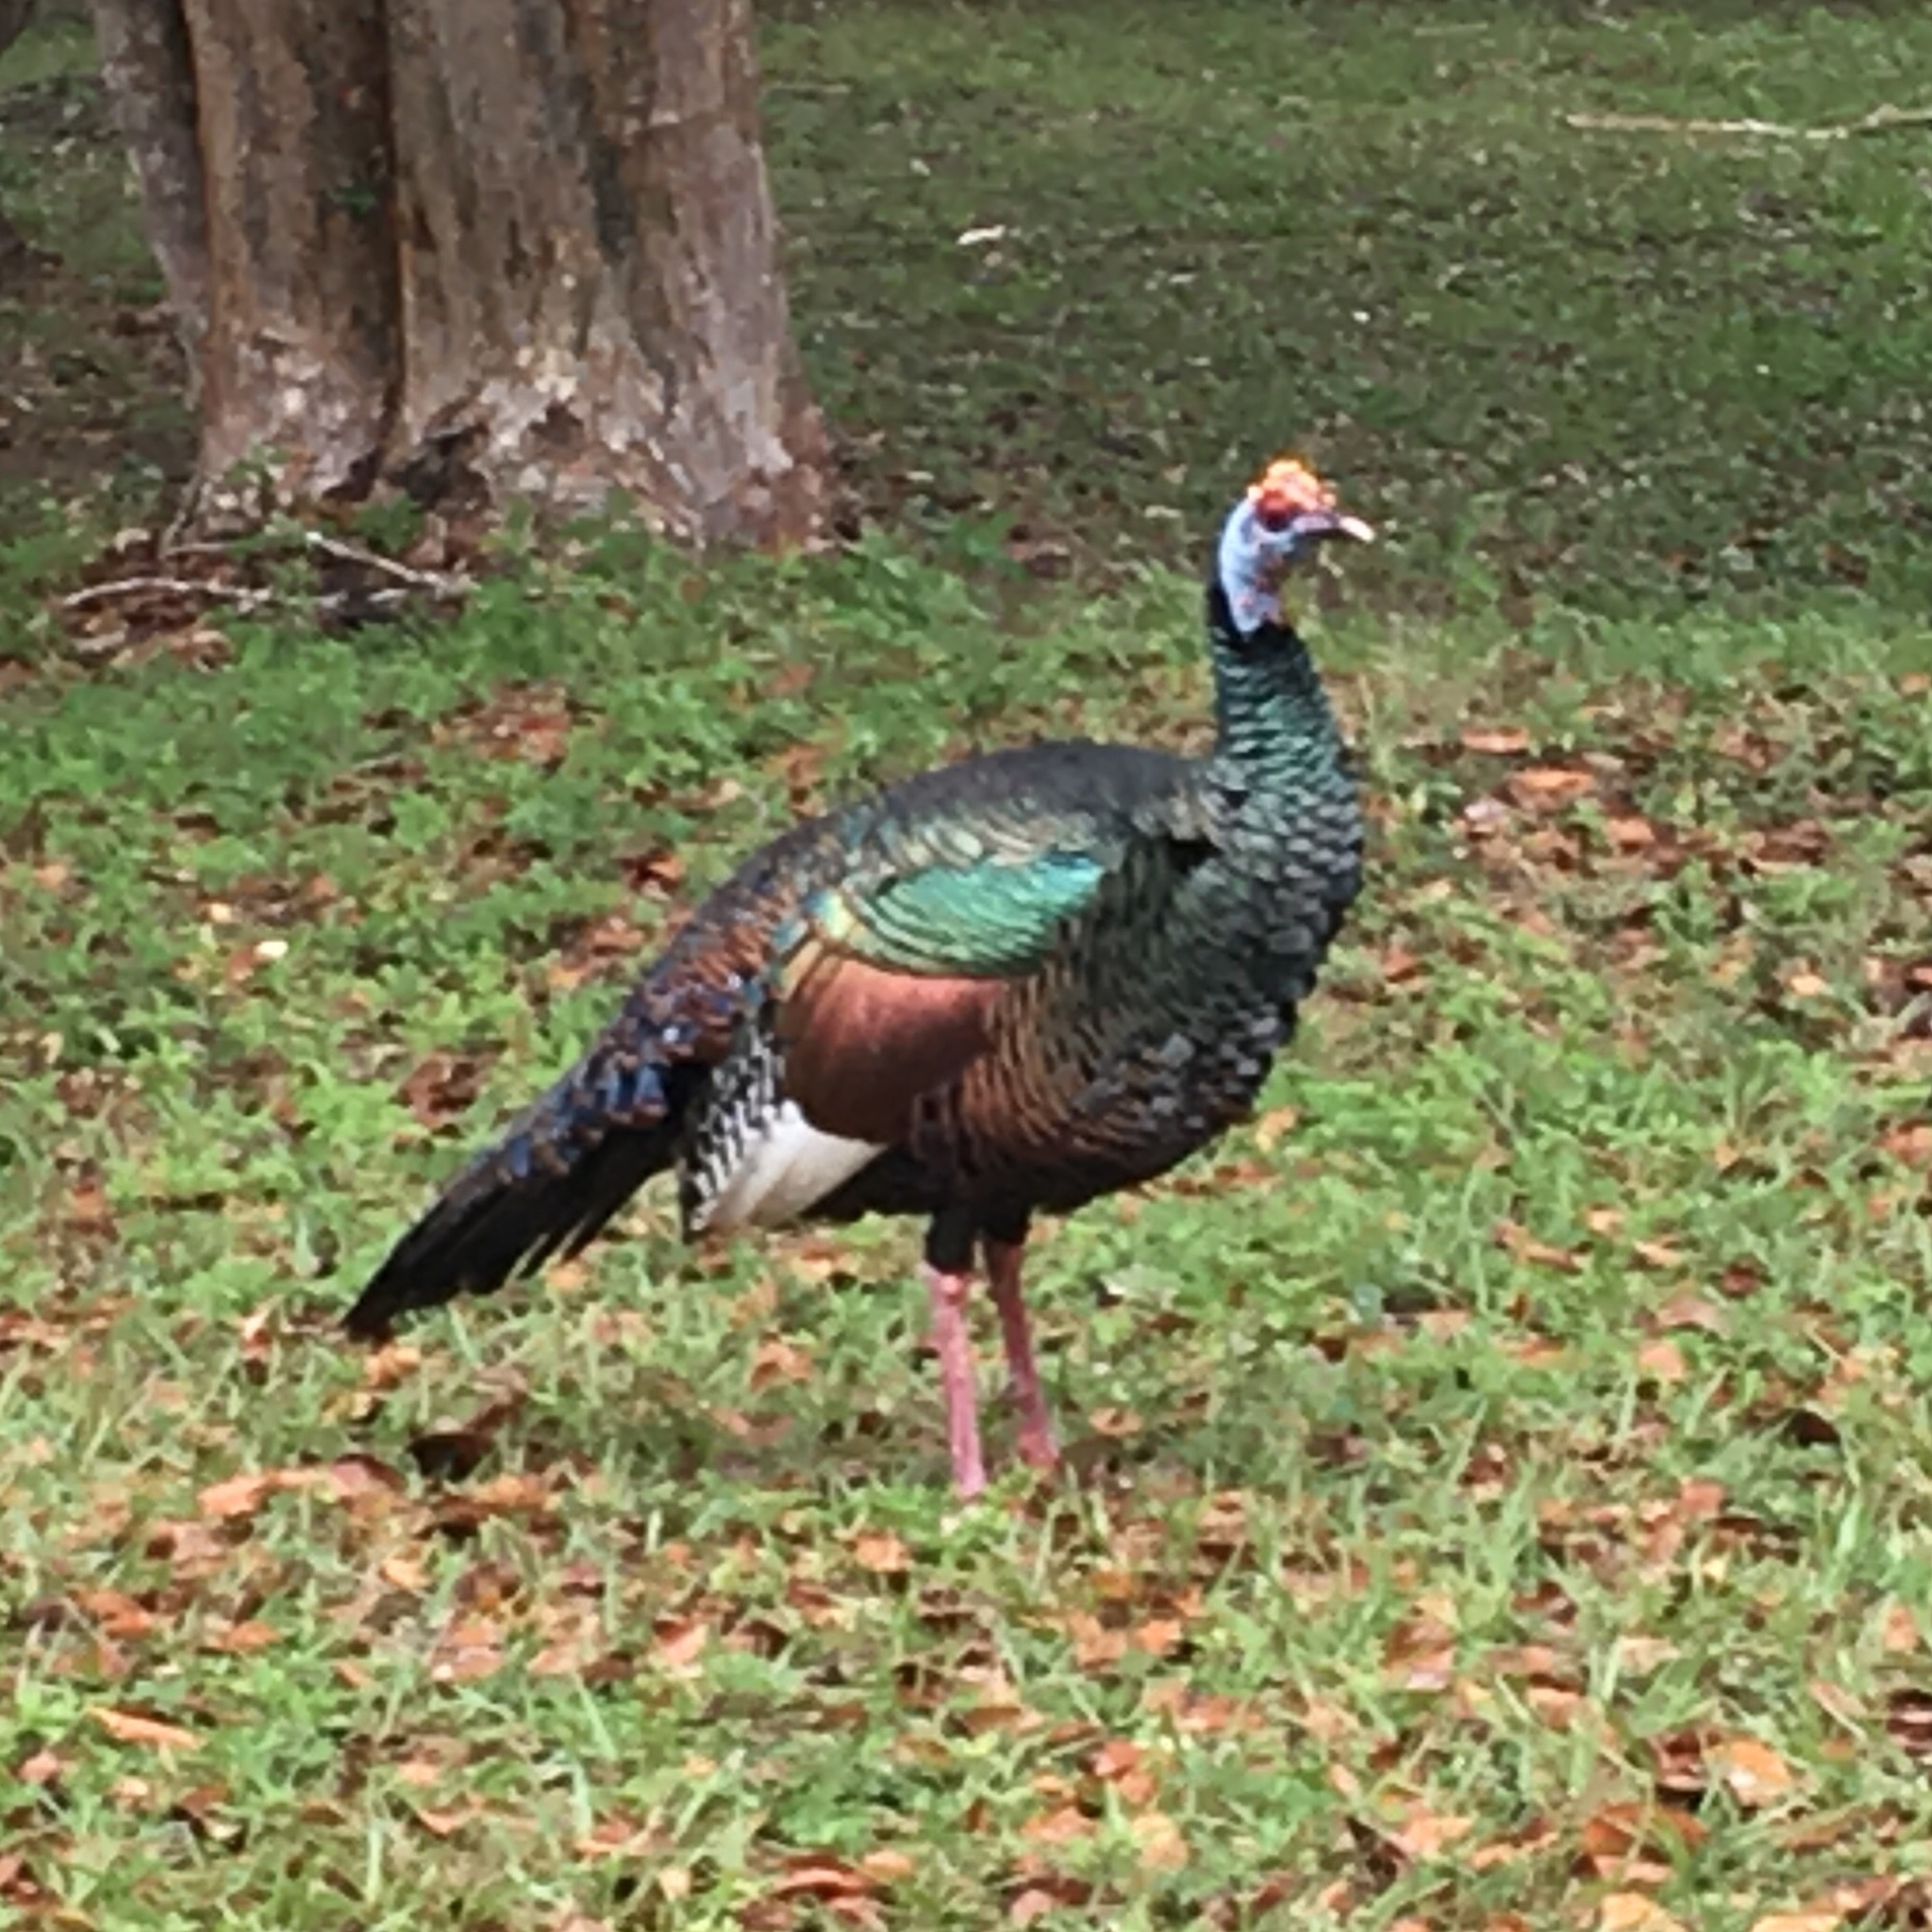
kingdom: Animalia
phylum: Chordata
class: Aves
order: Galliformes
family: Phasianidae
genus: Meleagris
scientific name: Meleagris ocellata
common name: Ocellated turkey
